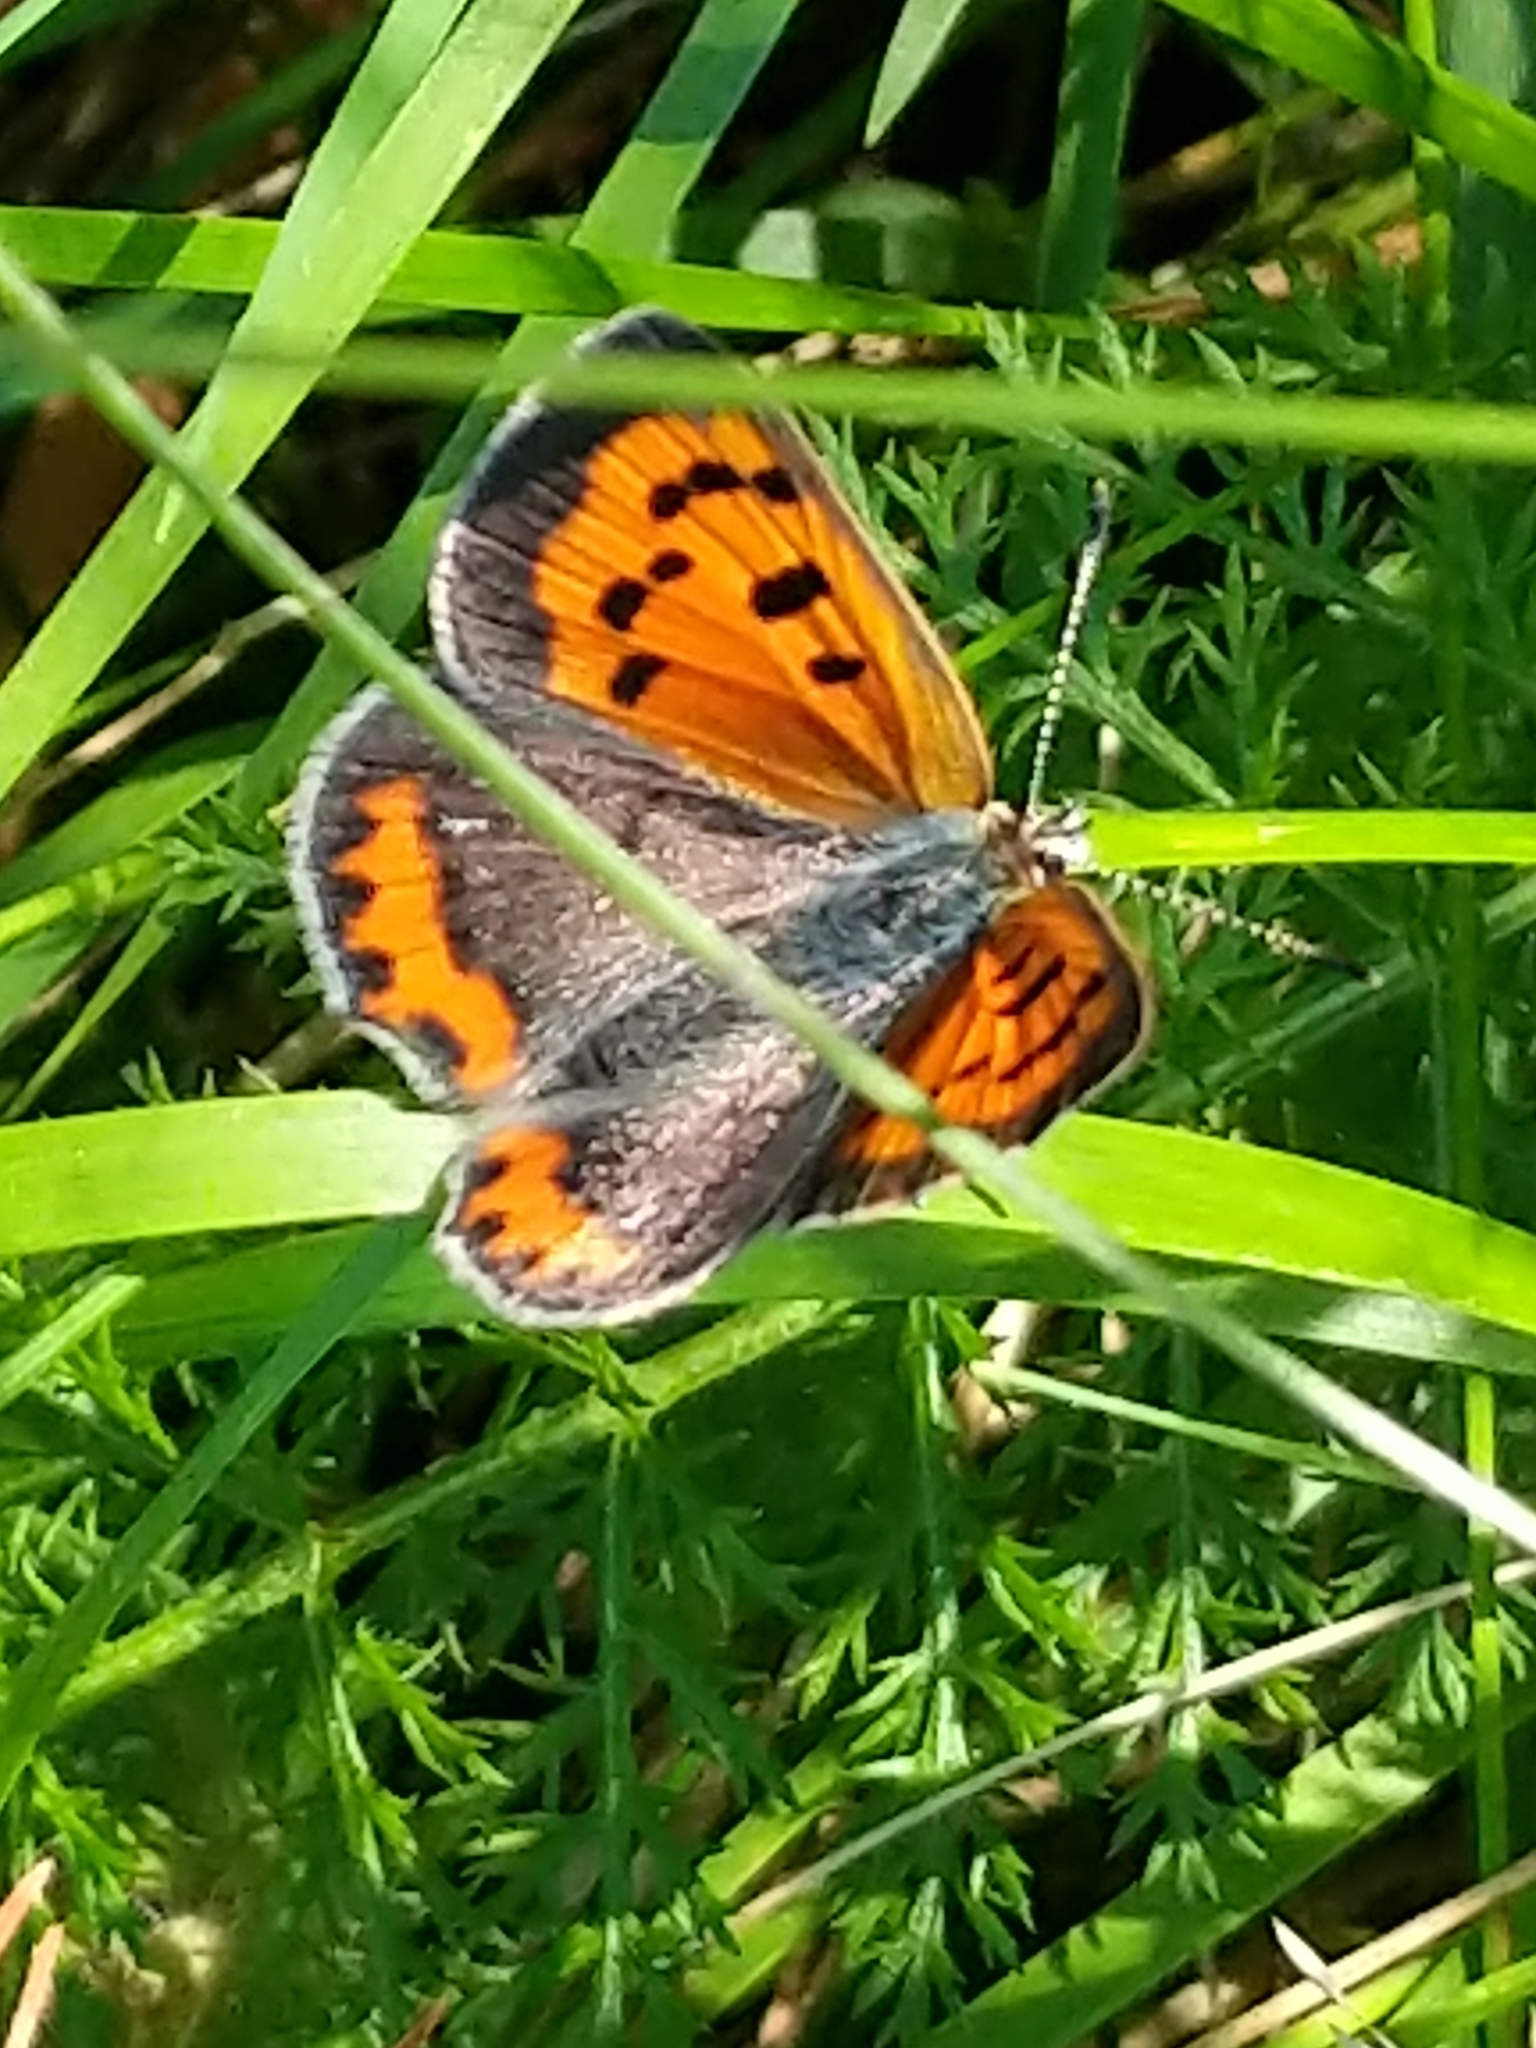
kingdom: Animalia
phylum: Arthropoda
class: Insecta
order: Lepidoptera
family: Lycaenidae
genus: Lycaena
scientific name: Lycaena hypophlaeas
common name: American copper
